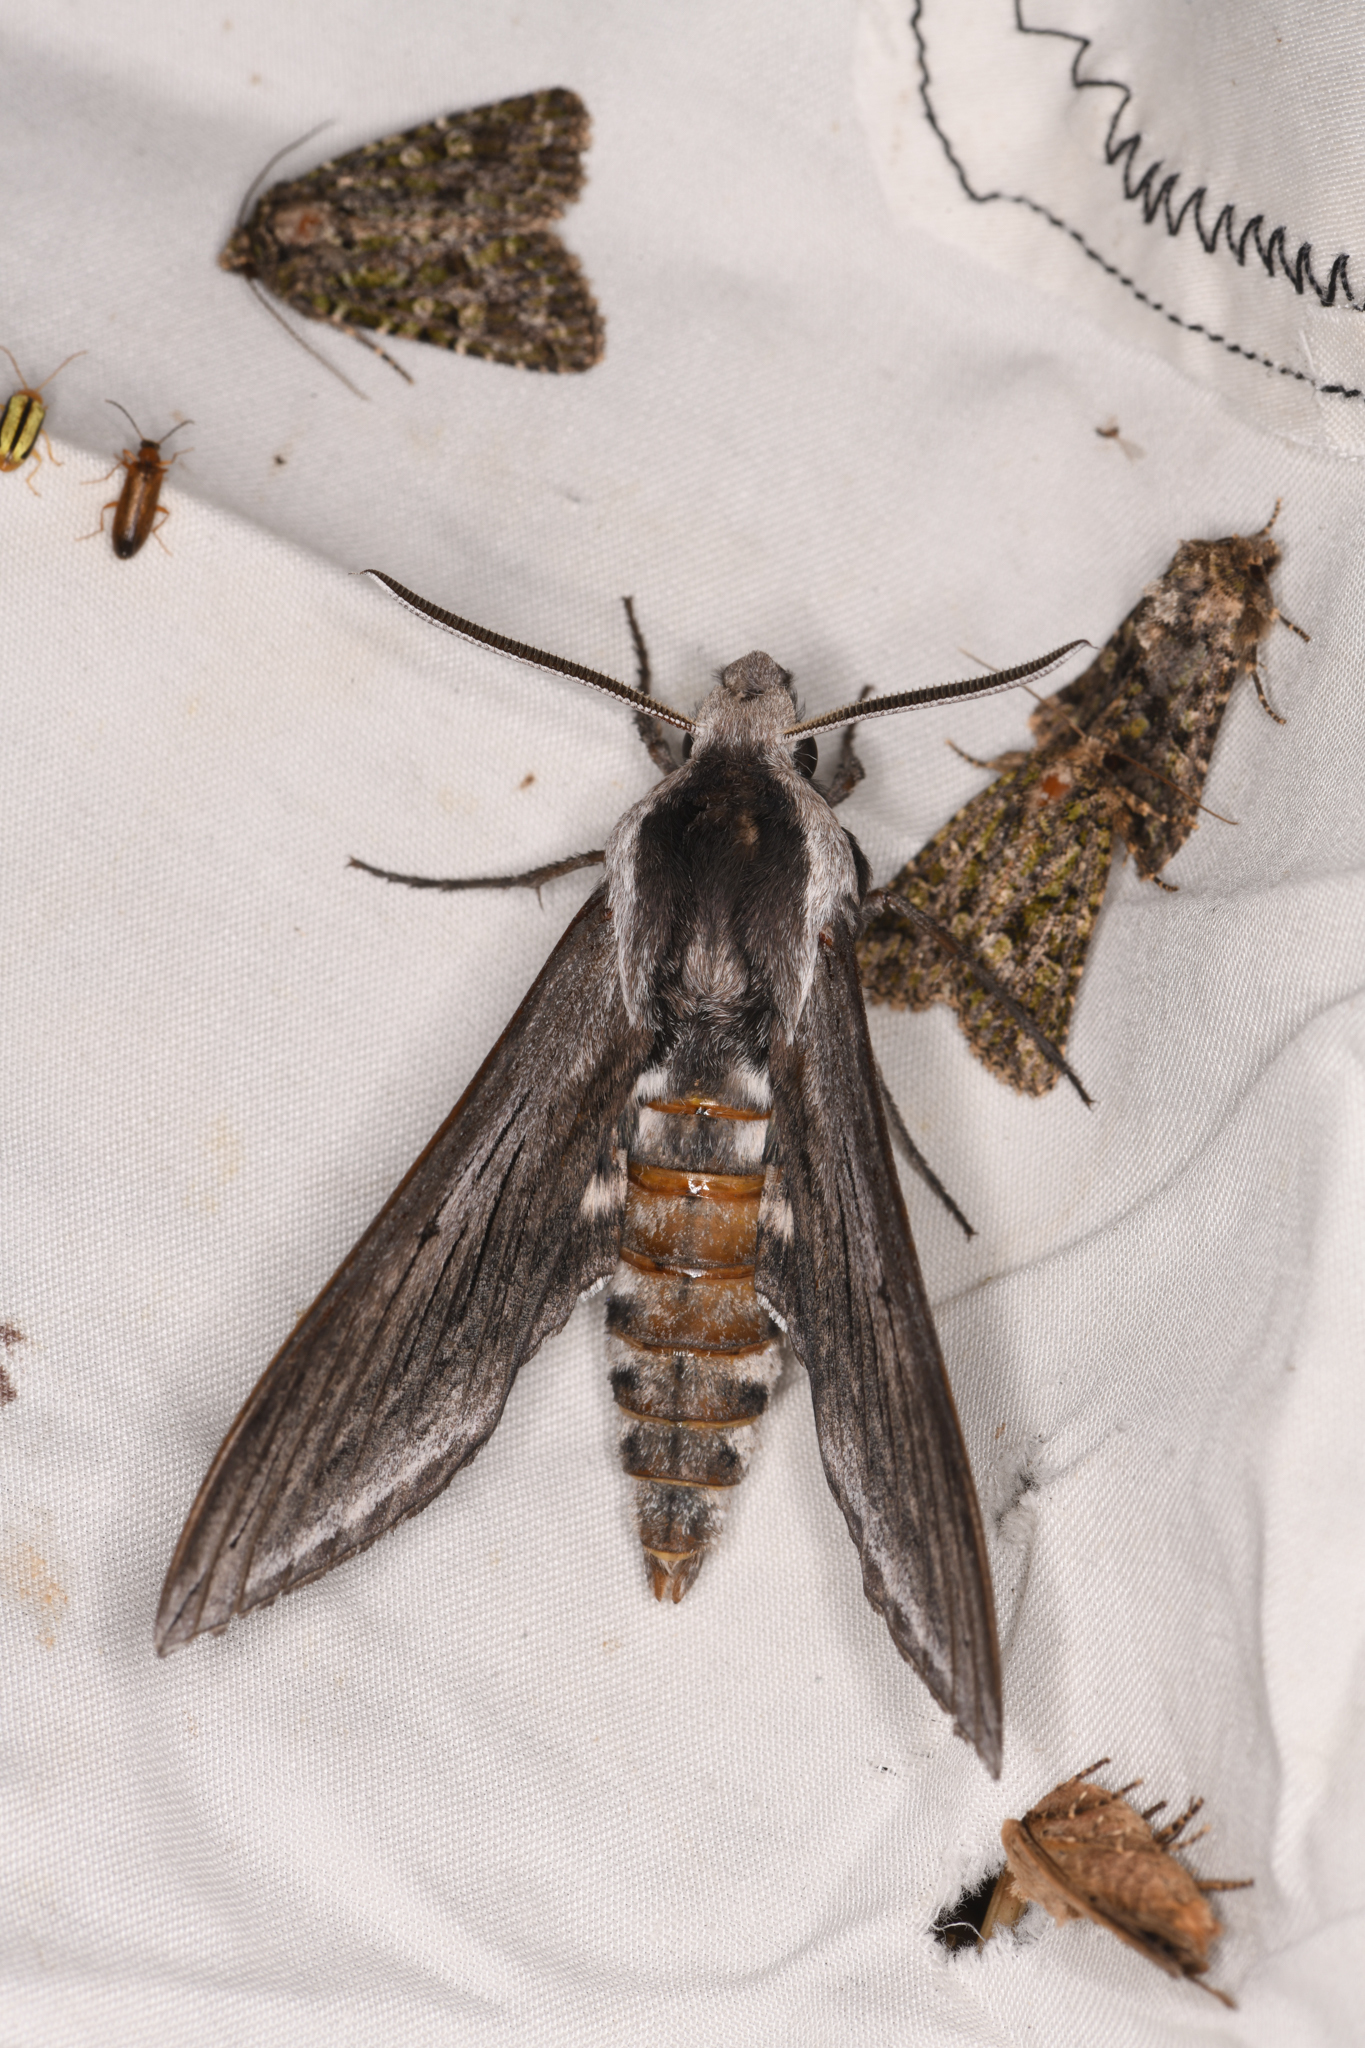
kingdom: Animalia
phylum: Arthropoda
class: Insecta
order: Lepidoptera
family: Sphingidae
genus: Sphinx
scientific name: Sphinx perelegans
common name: Elegant sphinx
